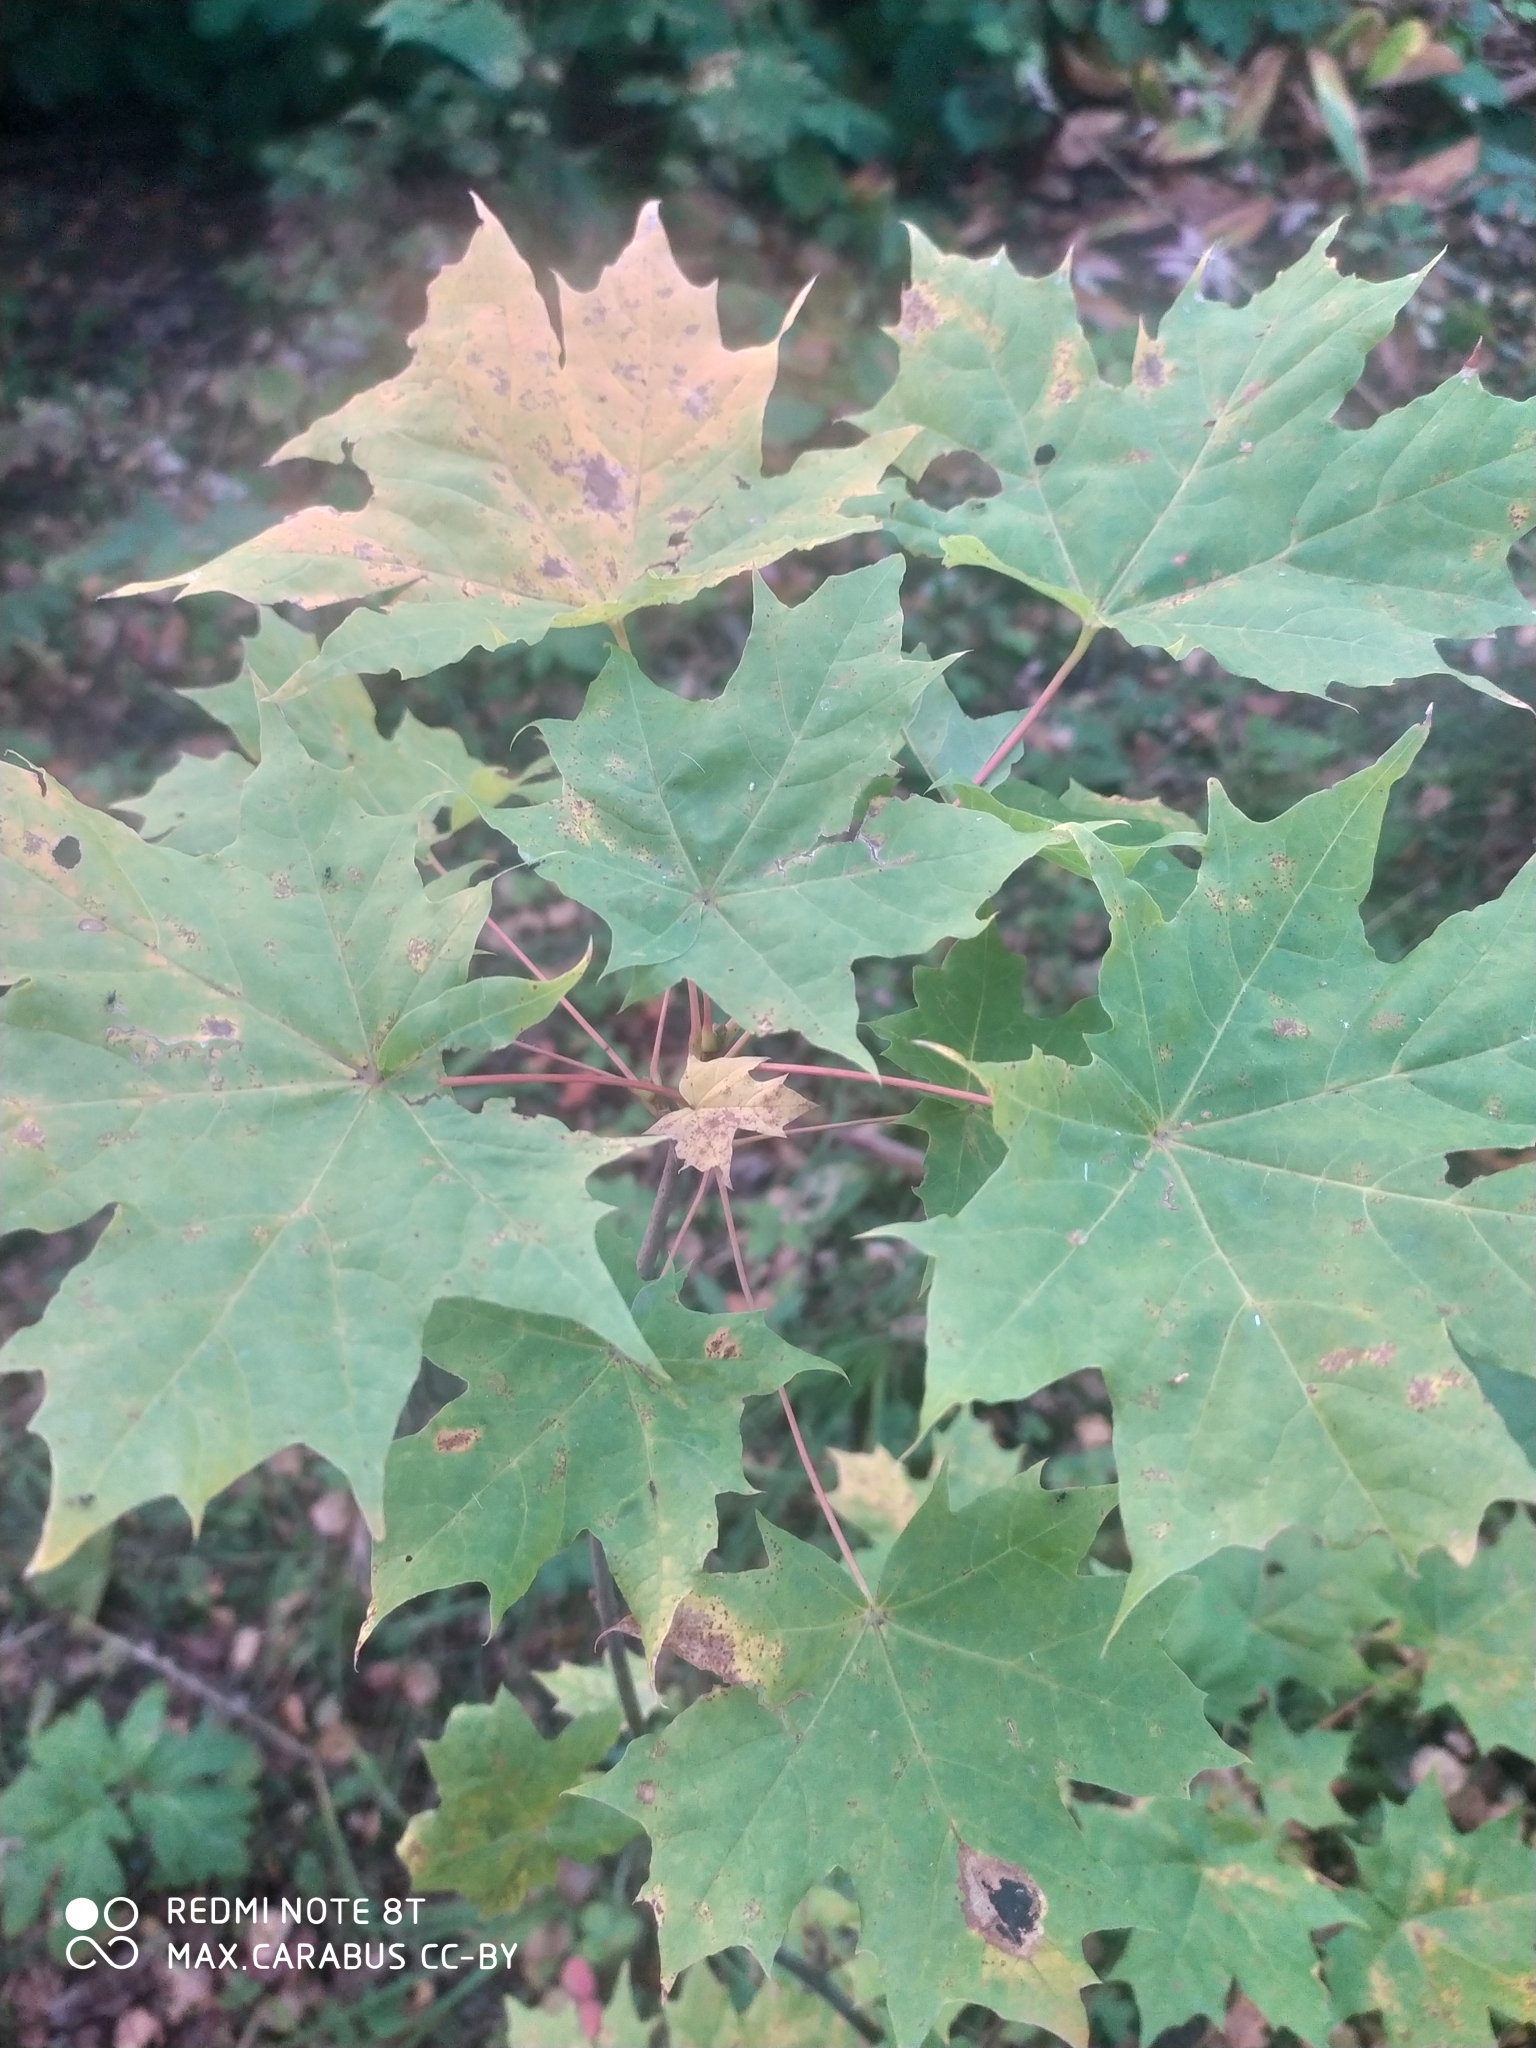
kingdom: Plantae
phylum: Tracheophyta
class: Magnoliopsida
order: Sapindales
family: Sapindaceae
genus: Acer
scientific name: Acer platanoides
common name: Norway maple
